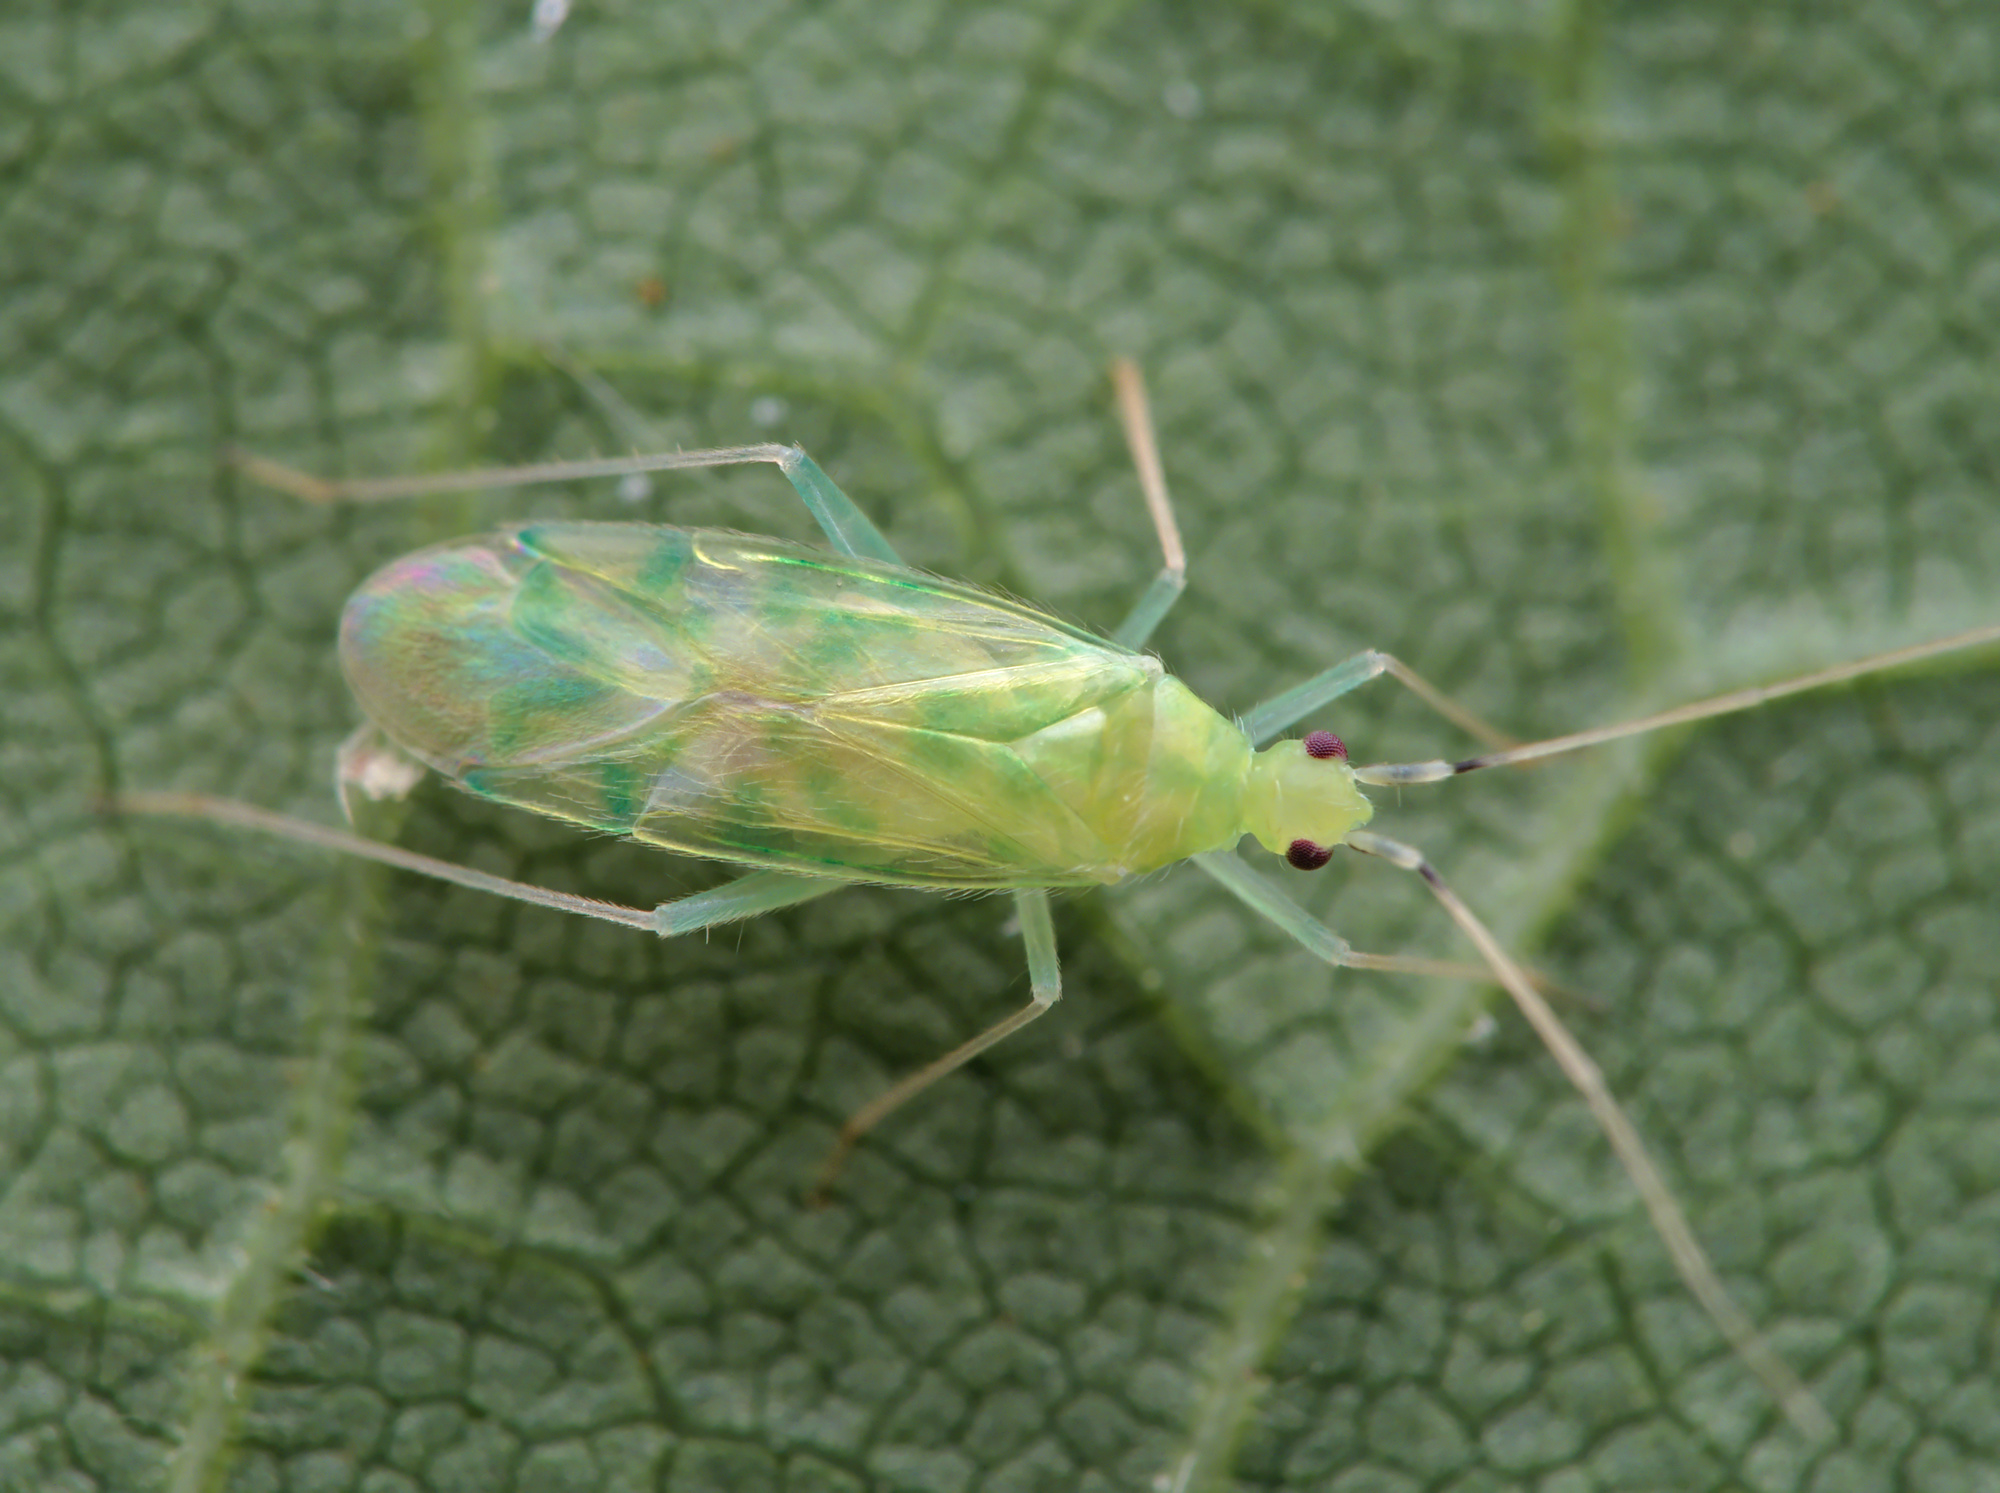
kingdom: Animalia
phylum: Arthropoda
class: Insecta
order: Hemiptera
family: Miridae
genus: Malacocoris
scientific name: Malacocoris chlorizans
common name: Plant bug
